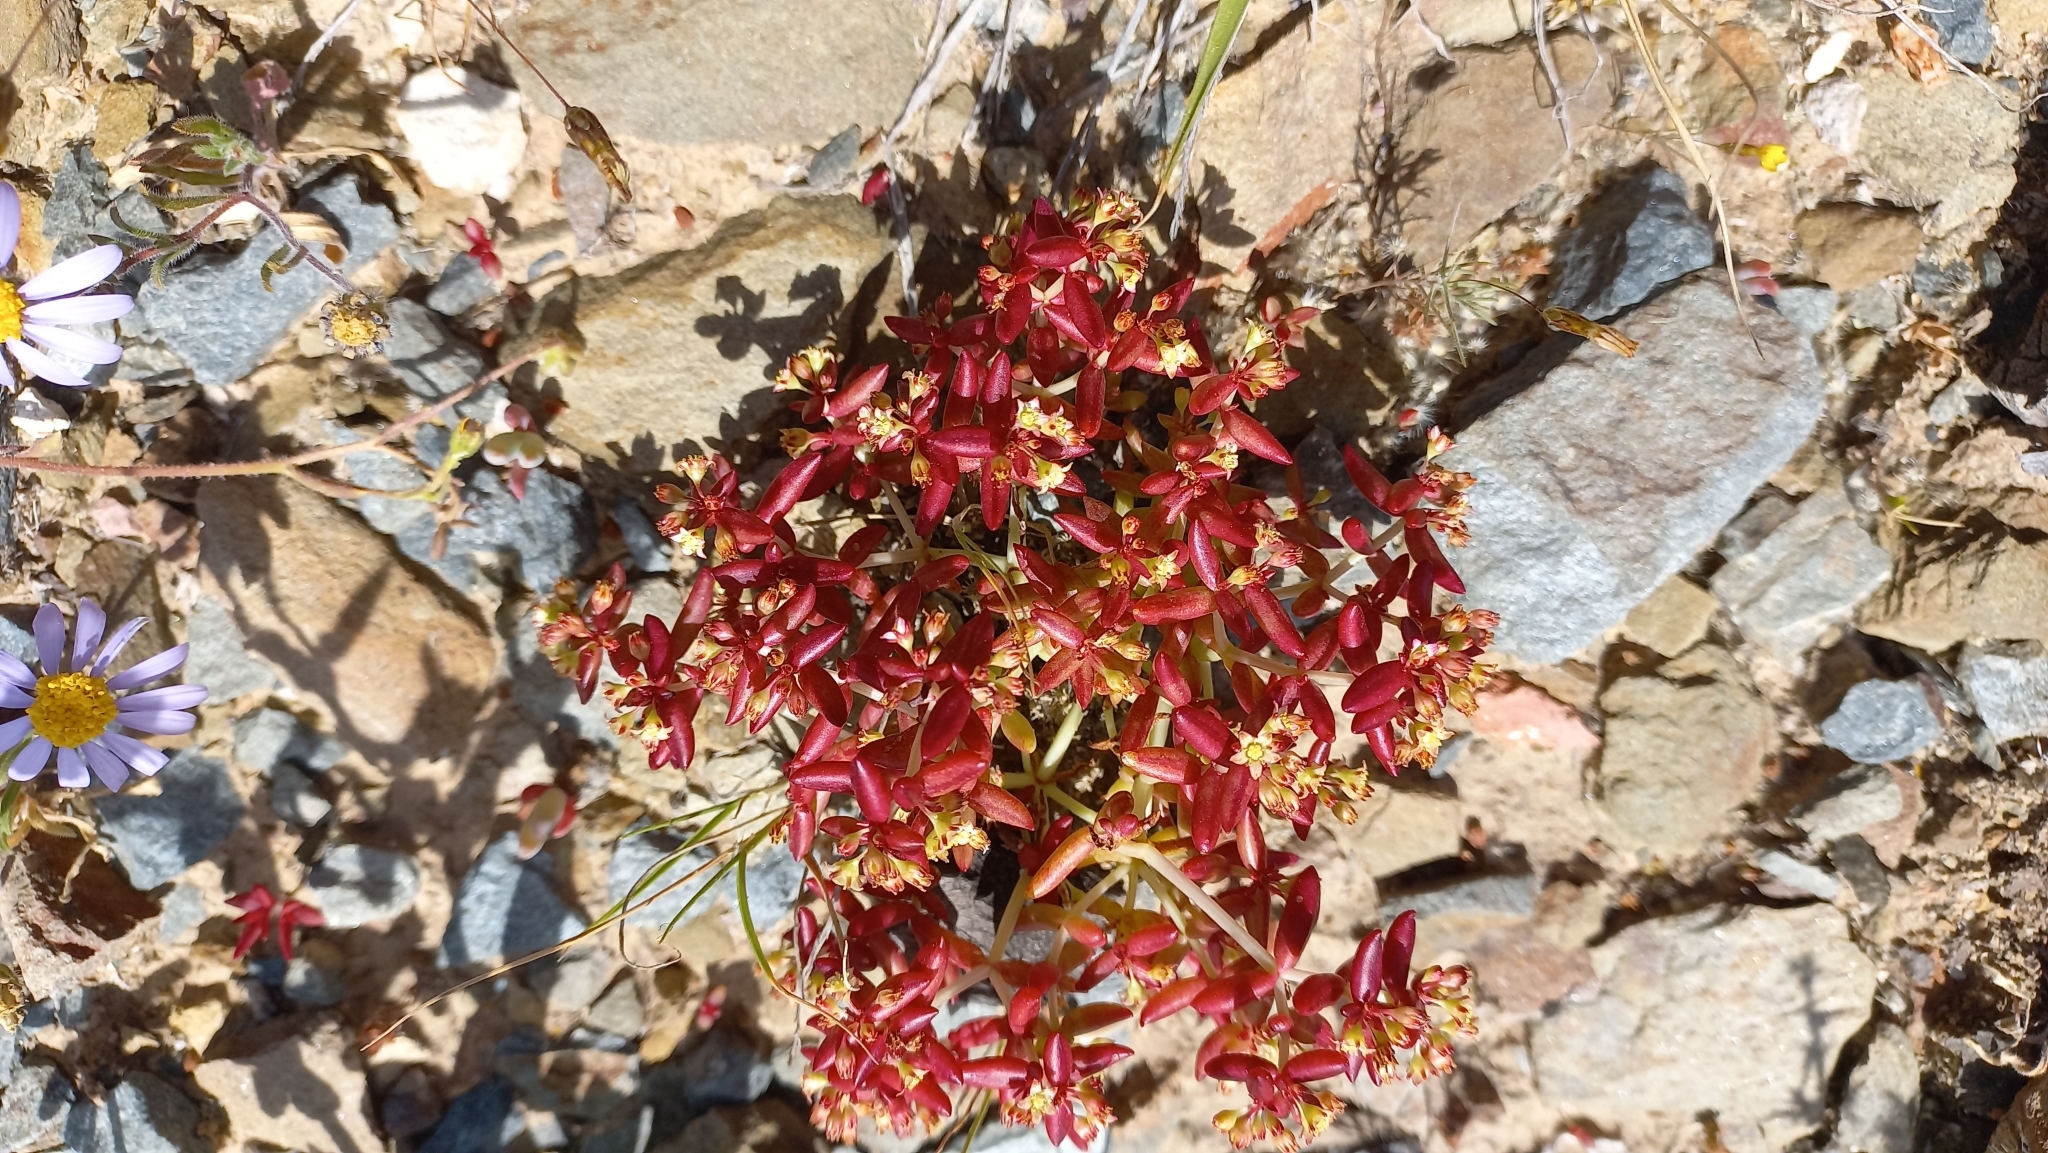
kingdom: Plantae
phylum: Tracheophyta
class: Magnoliopsida
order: Saxifragales
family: Crassulaceae
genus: Crassula
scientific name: Crassula expansa
